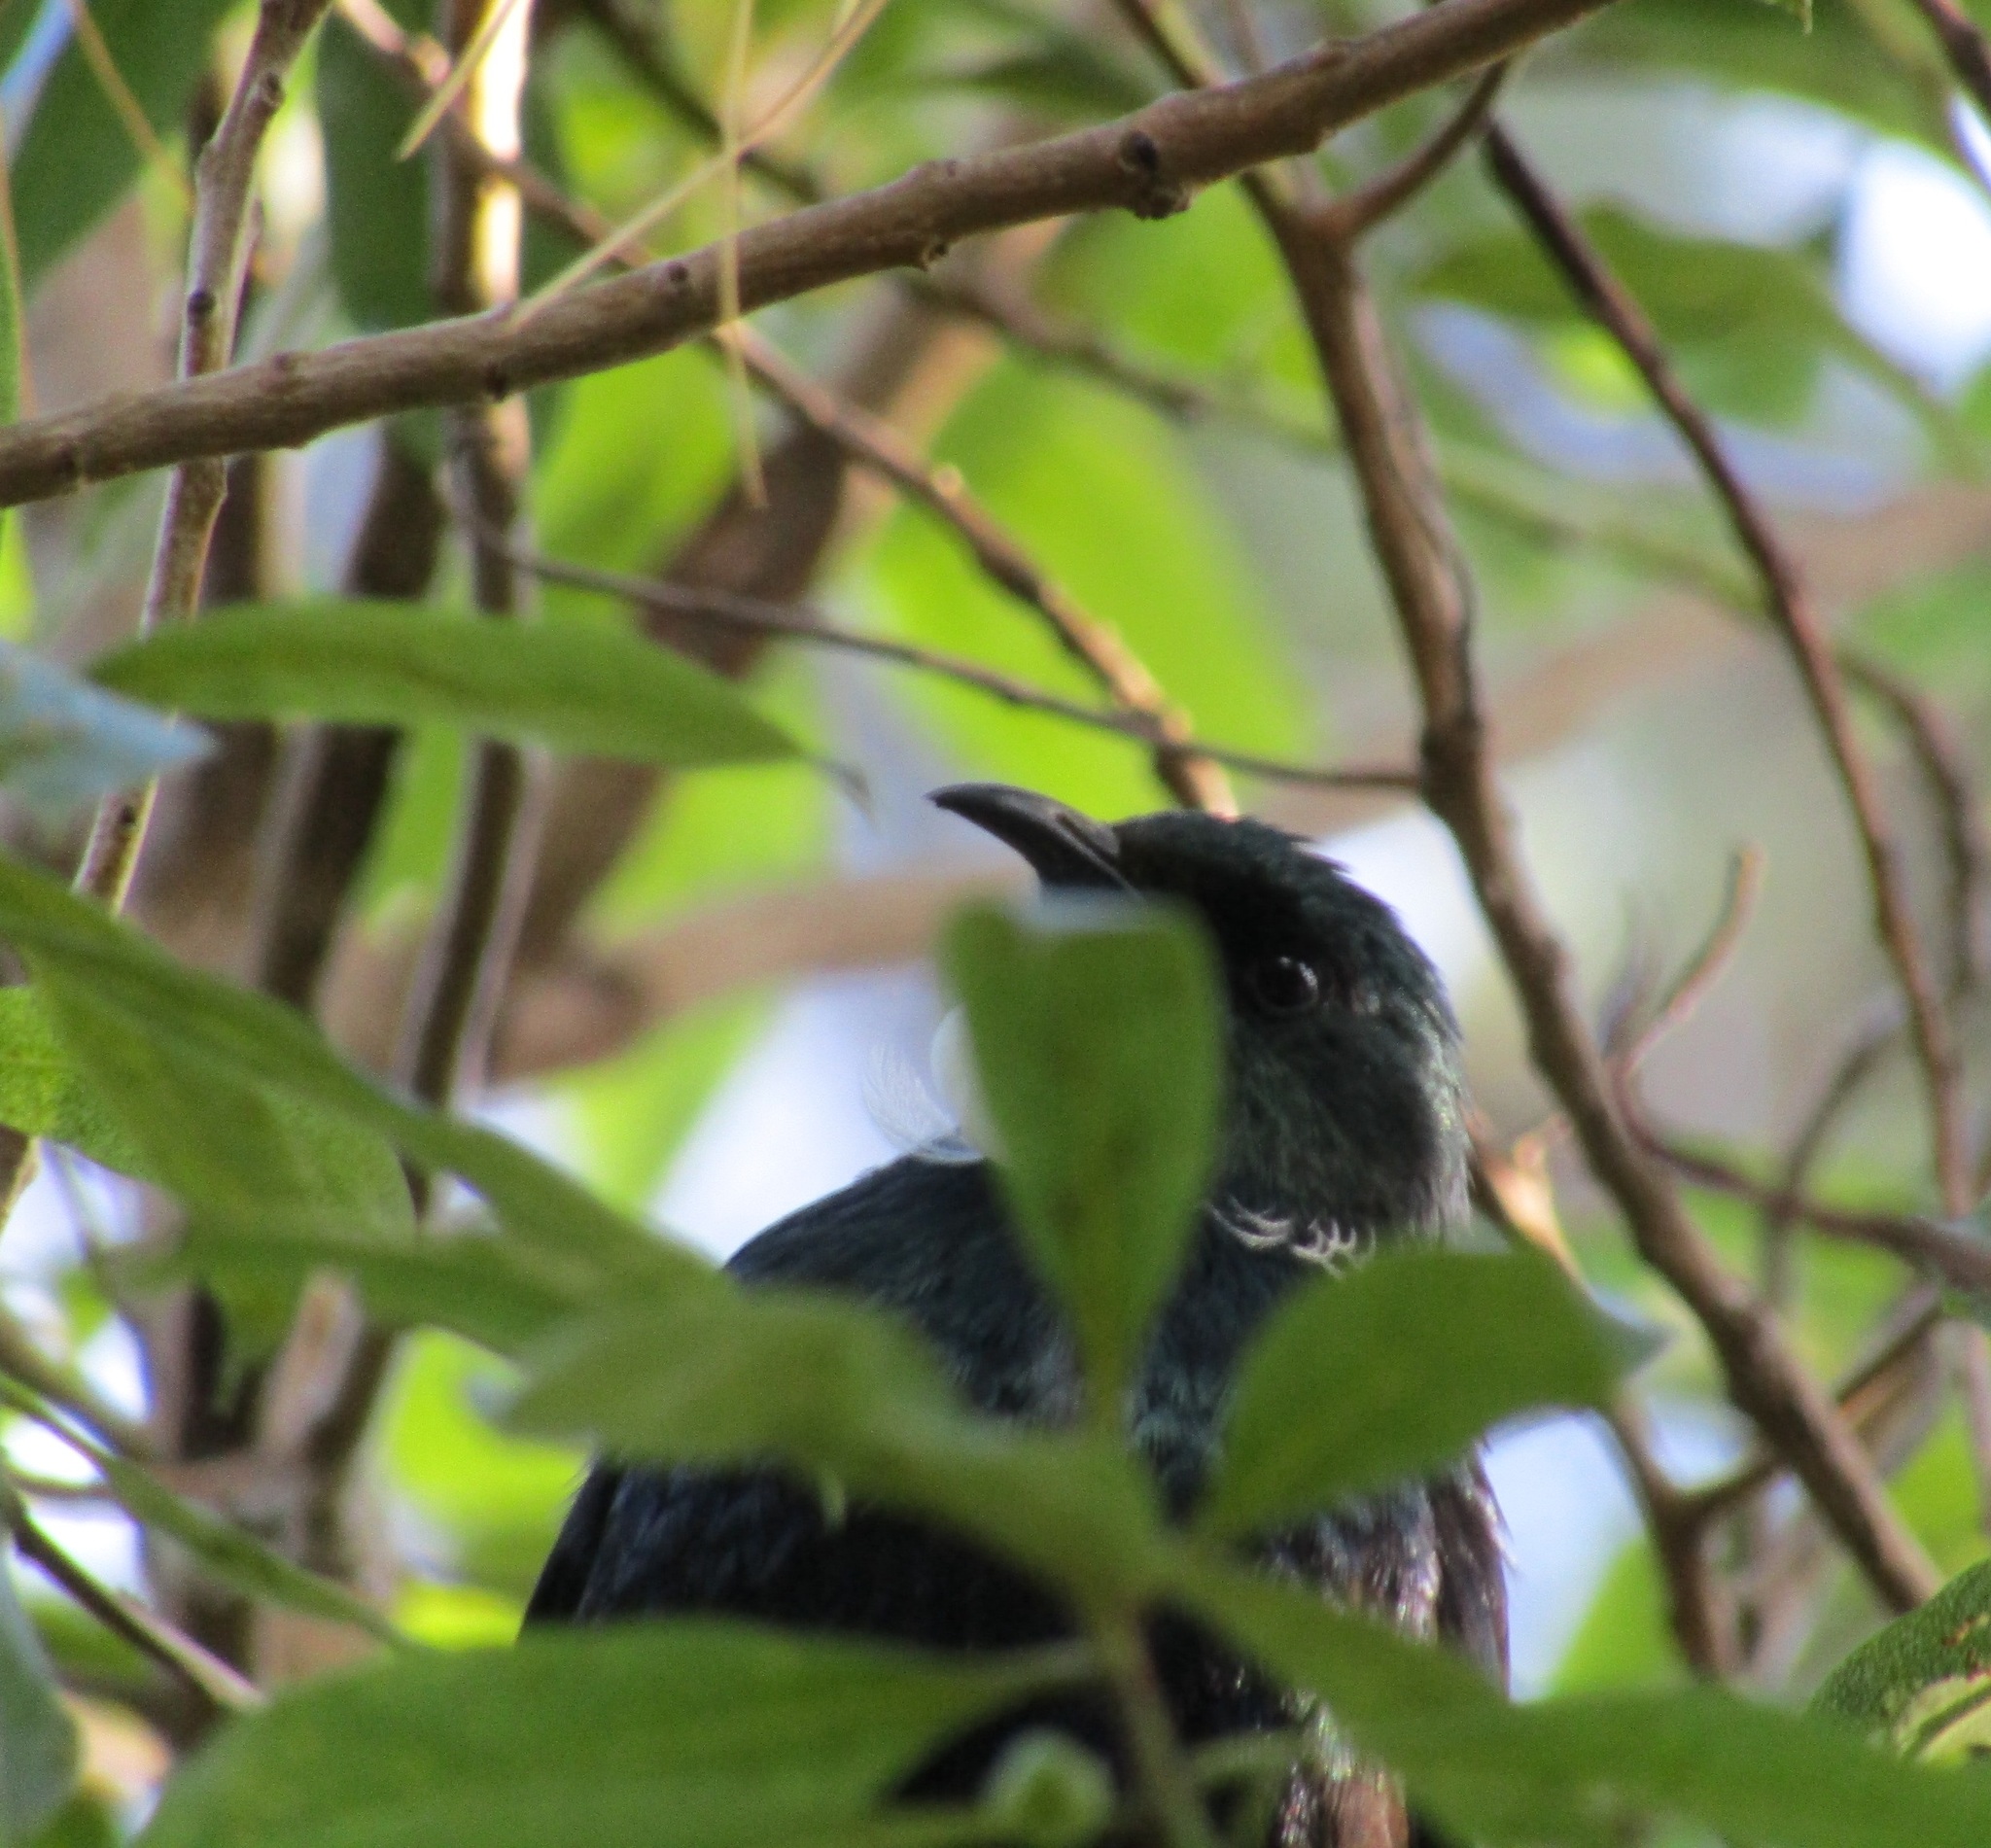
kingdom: Animalia
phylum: Chordata
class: Aves
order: Passeriformes
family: Meliphagidae
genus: Prosthemadera
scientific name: Prosthemadera novaeseelandiae
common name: Tui
